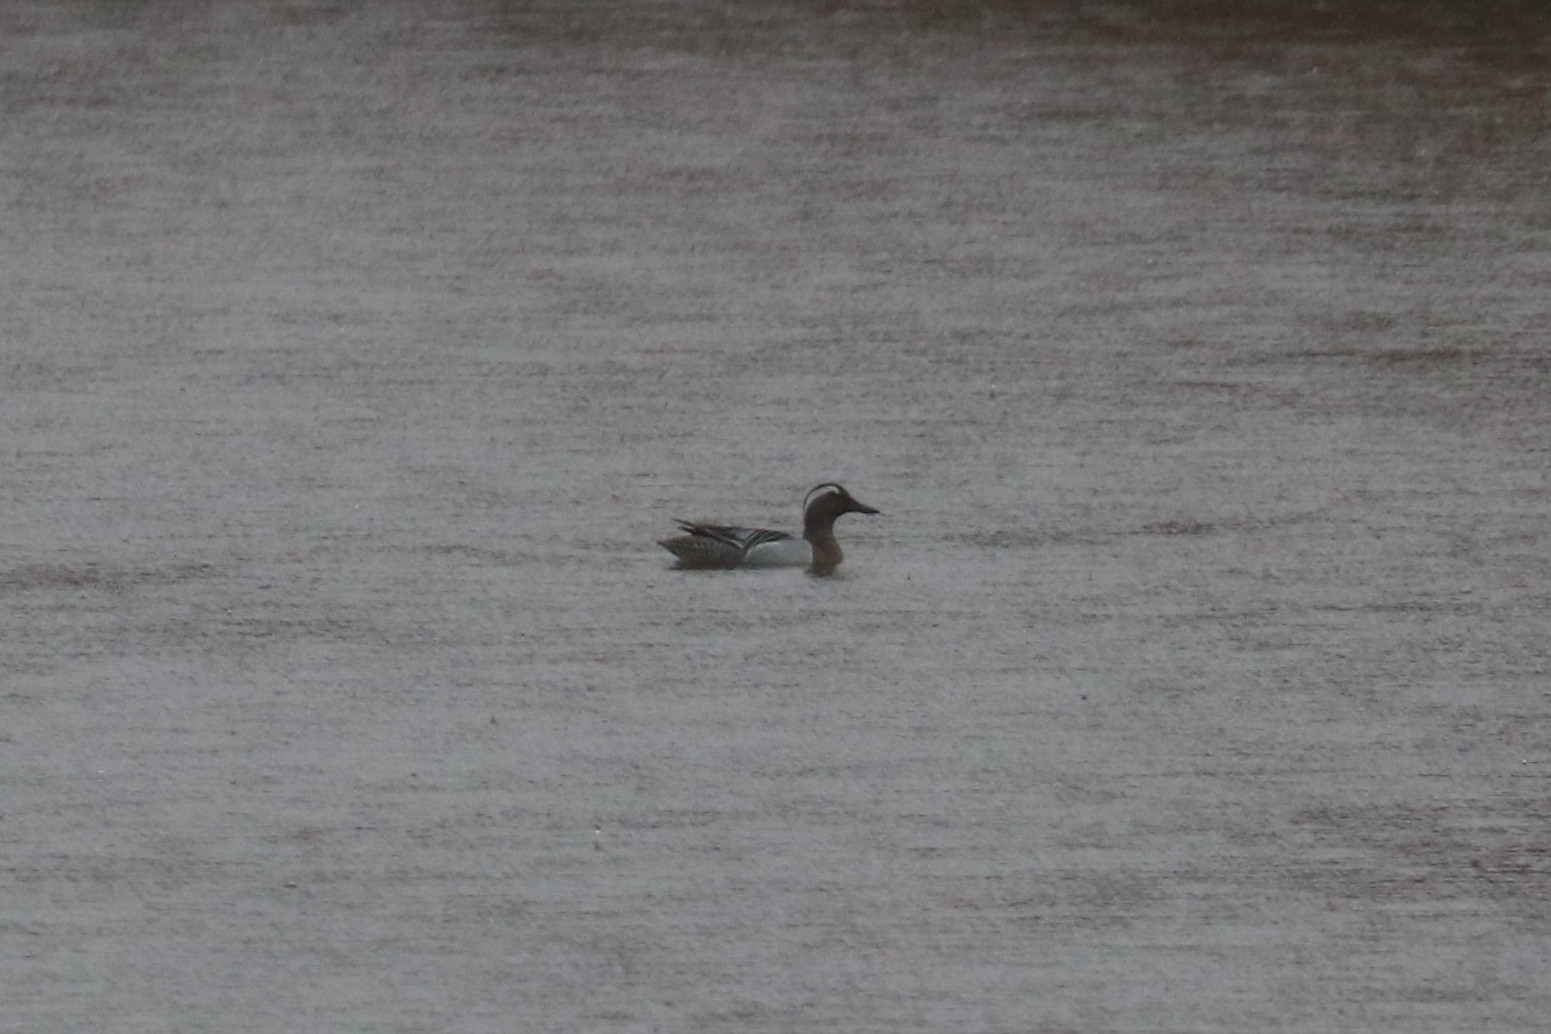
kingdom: Animalia
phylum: Chordata
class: Aves
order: Anseriformes
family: Anatidae
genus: Spatula
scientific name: Spatula querquedula
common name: Garganey
